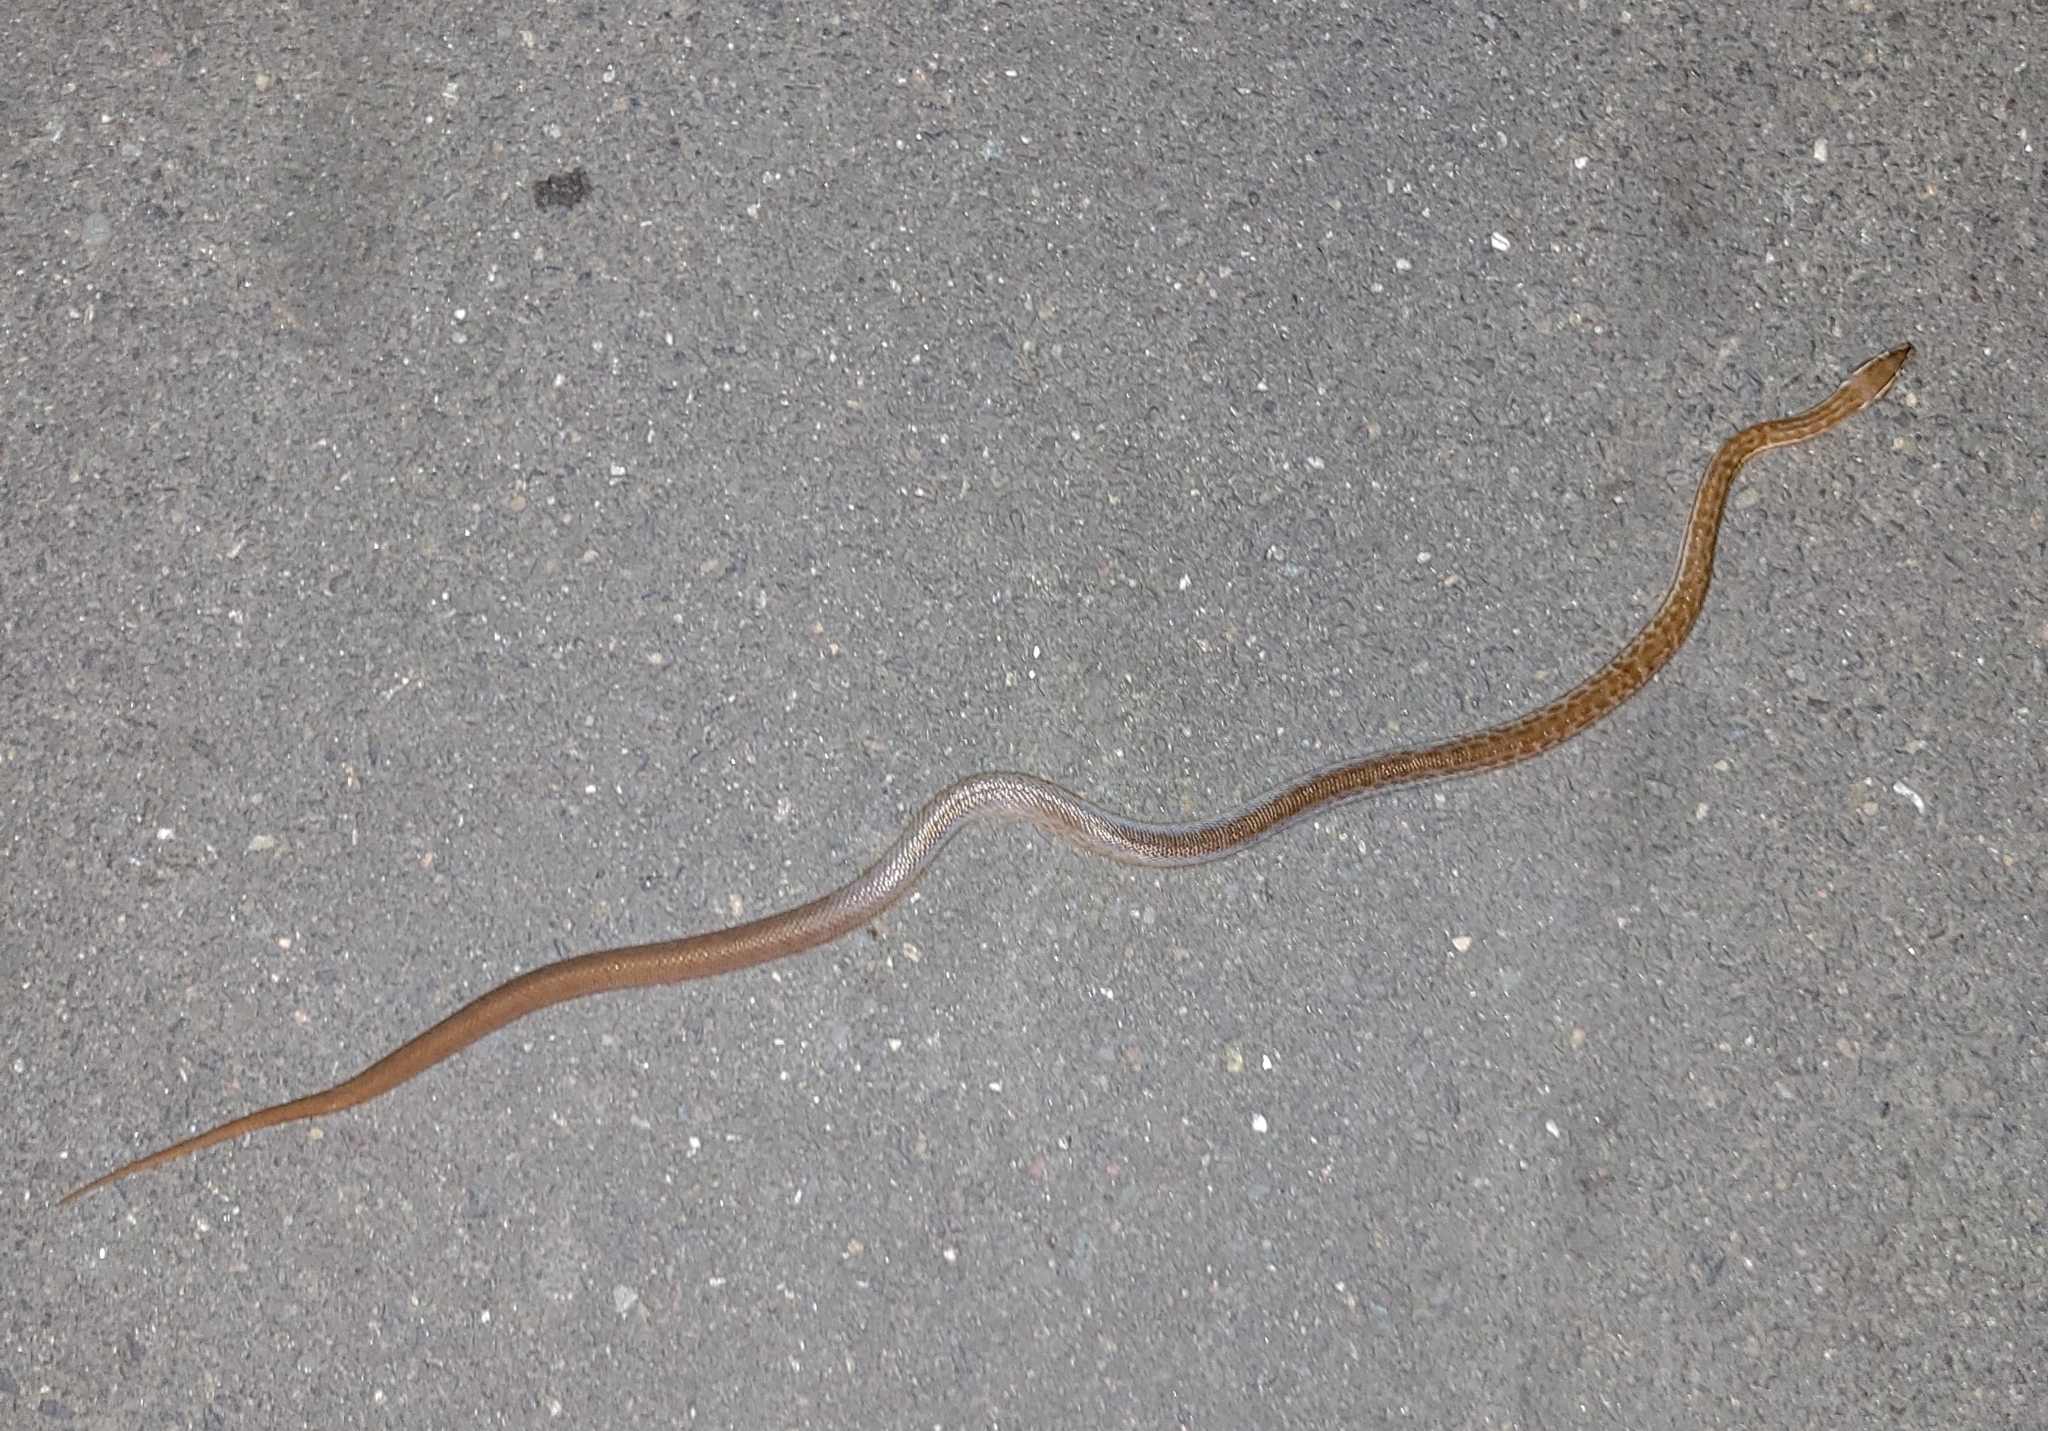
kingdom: Animalia
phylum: Chordata
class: Squamata
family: Lamprophiidae
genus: Boaedon
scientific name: Boaedon capensis
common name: Brown house snake
